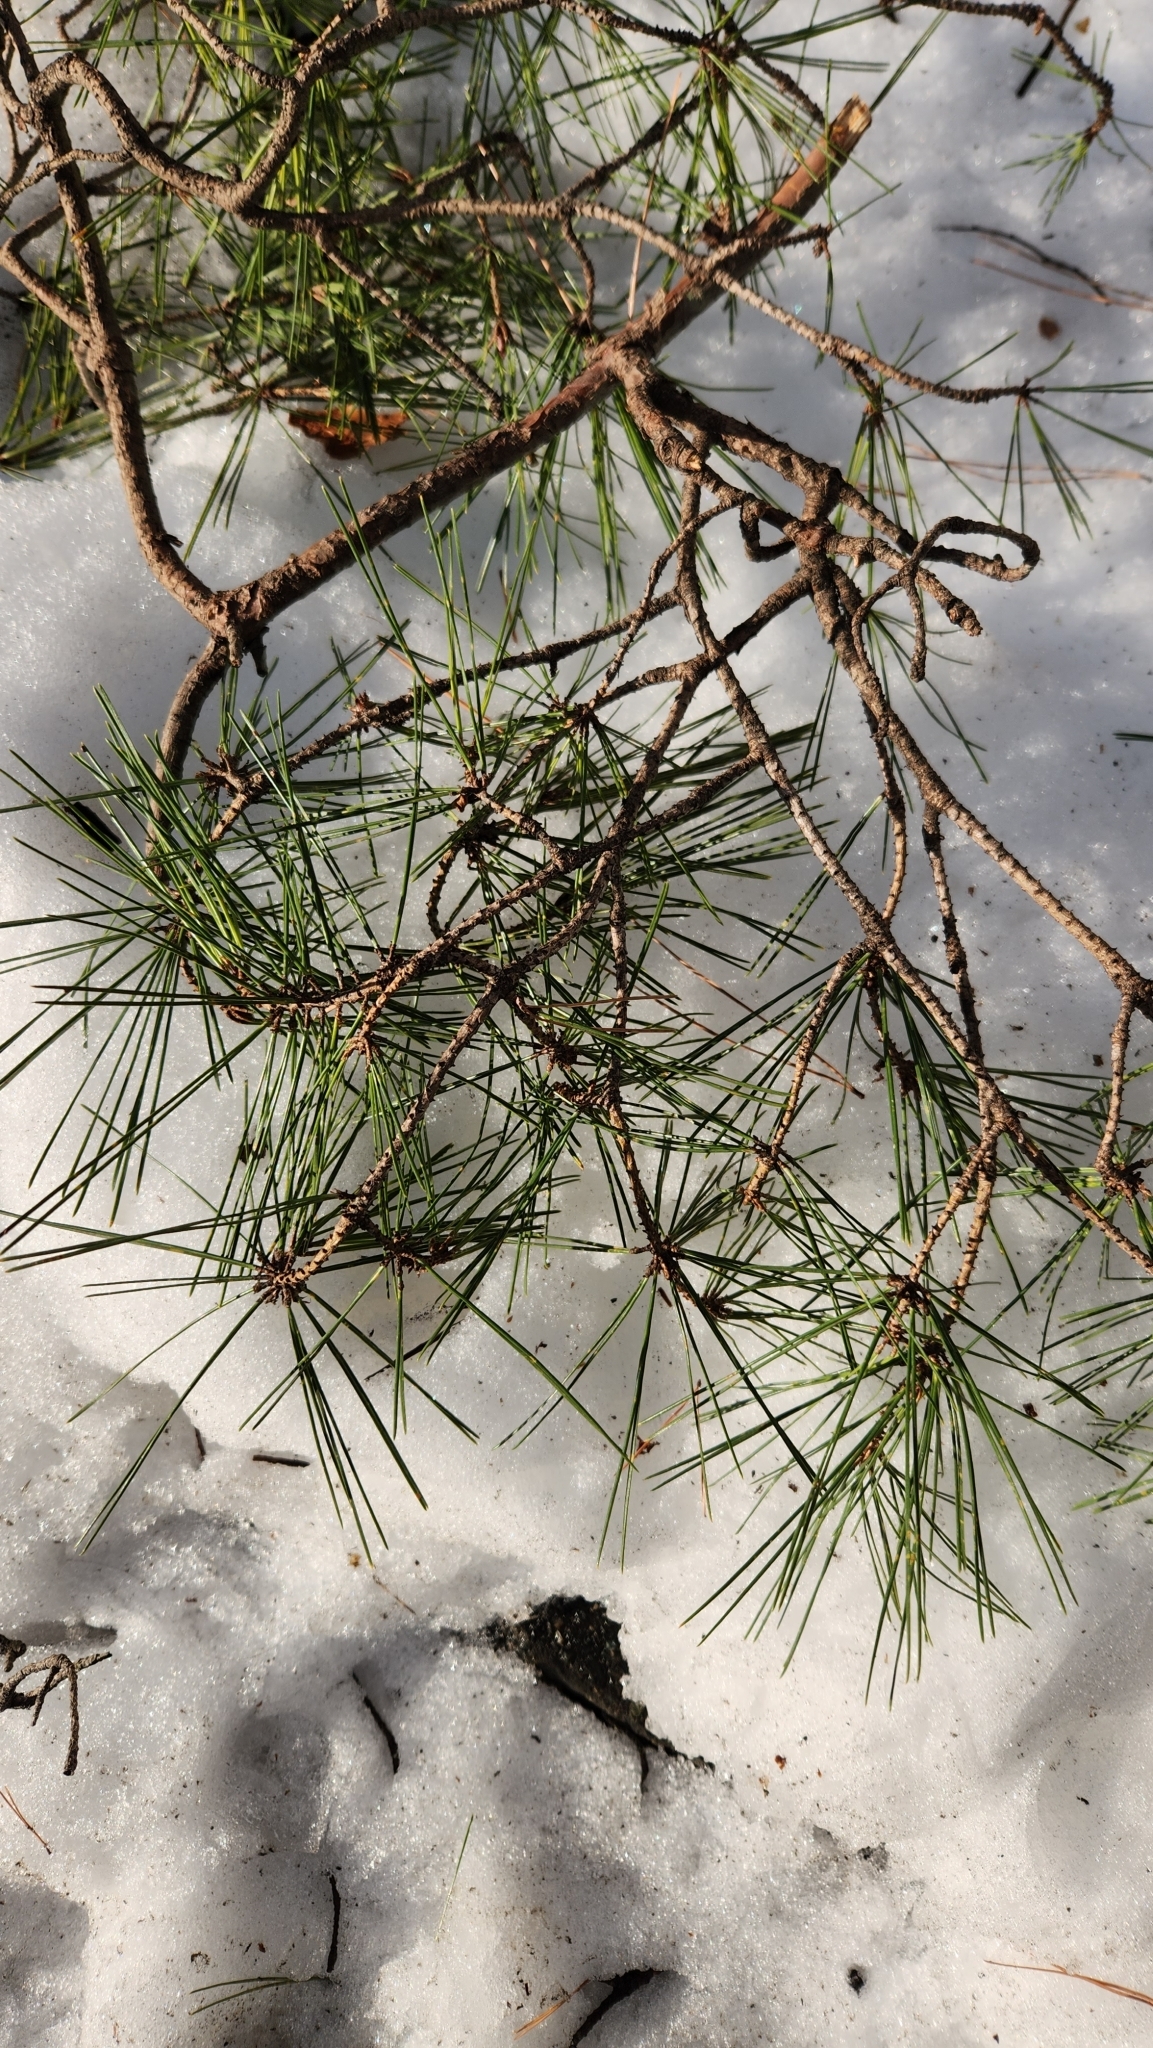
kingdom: Plantae
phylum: Tracheophyta
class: Pinopsida
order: Pinales
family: Pinaceae
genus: Pinus
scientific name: Pinus densiflora
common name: Japanese red pine
